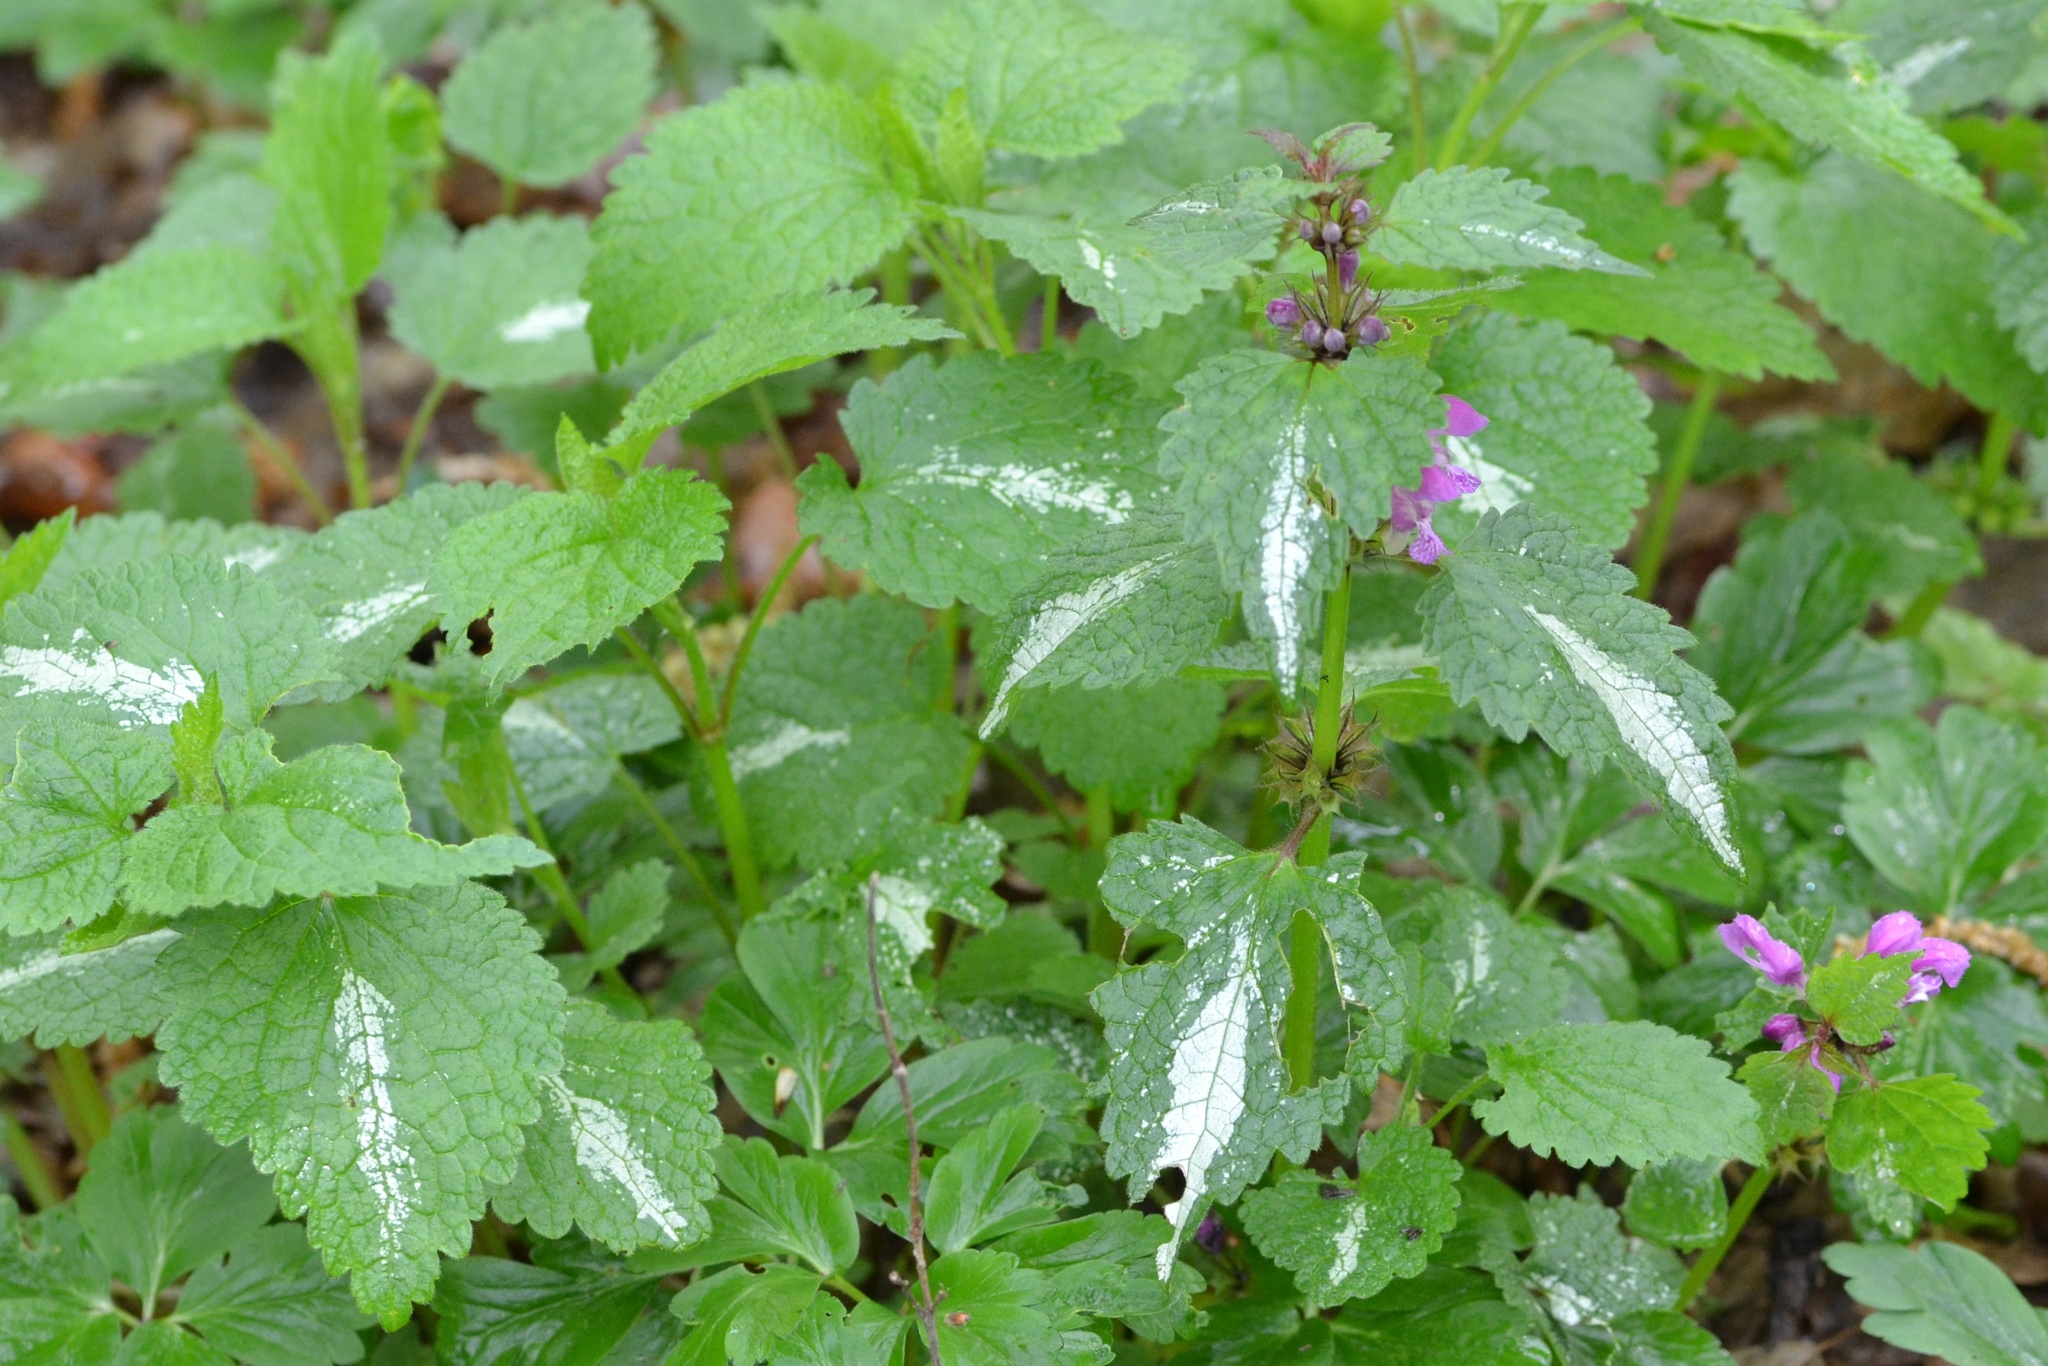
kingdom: Plantae
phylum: Tracheophyta
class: Magnoliopsida
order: Lamiales
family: Lamiaceae
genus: Lamium
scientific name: Lamium maculatum
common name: Spotted dead-nettle
